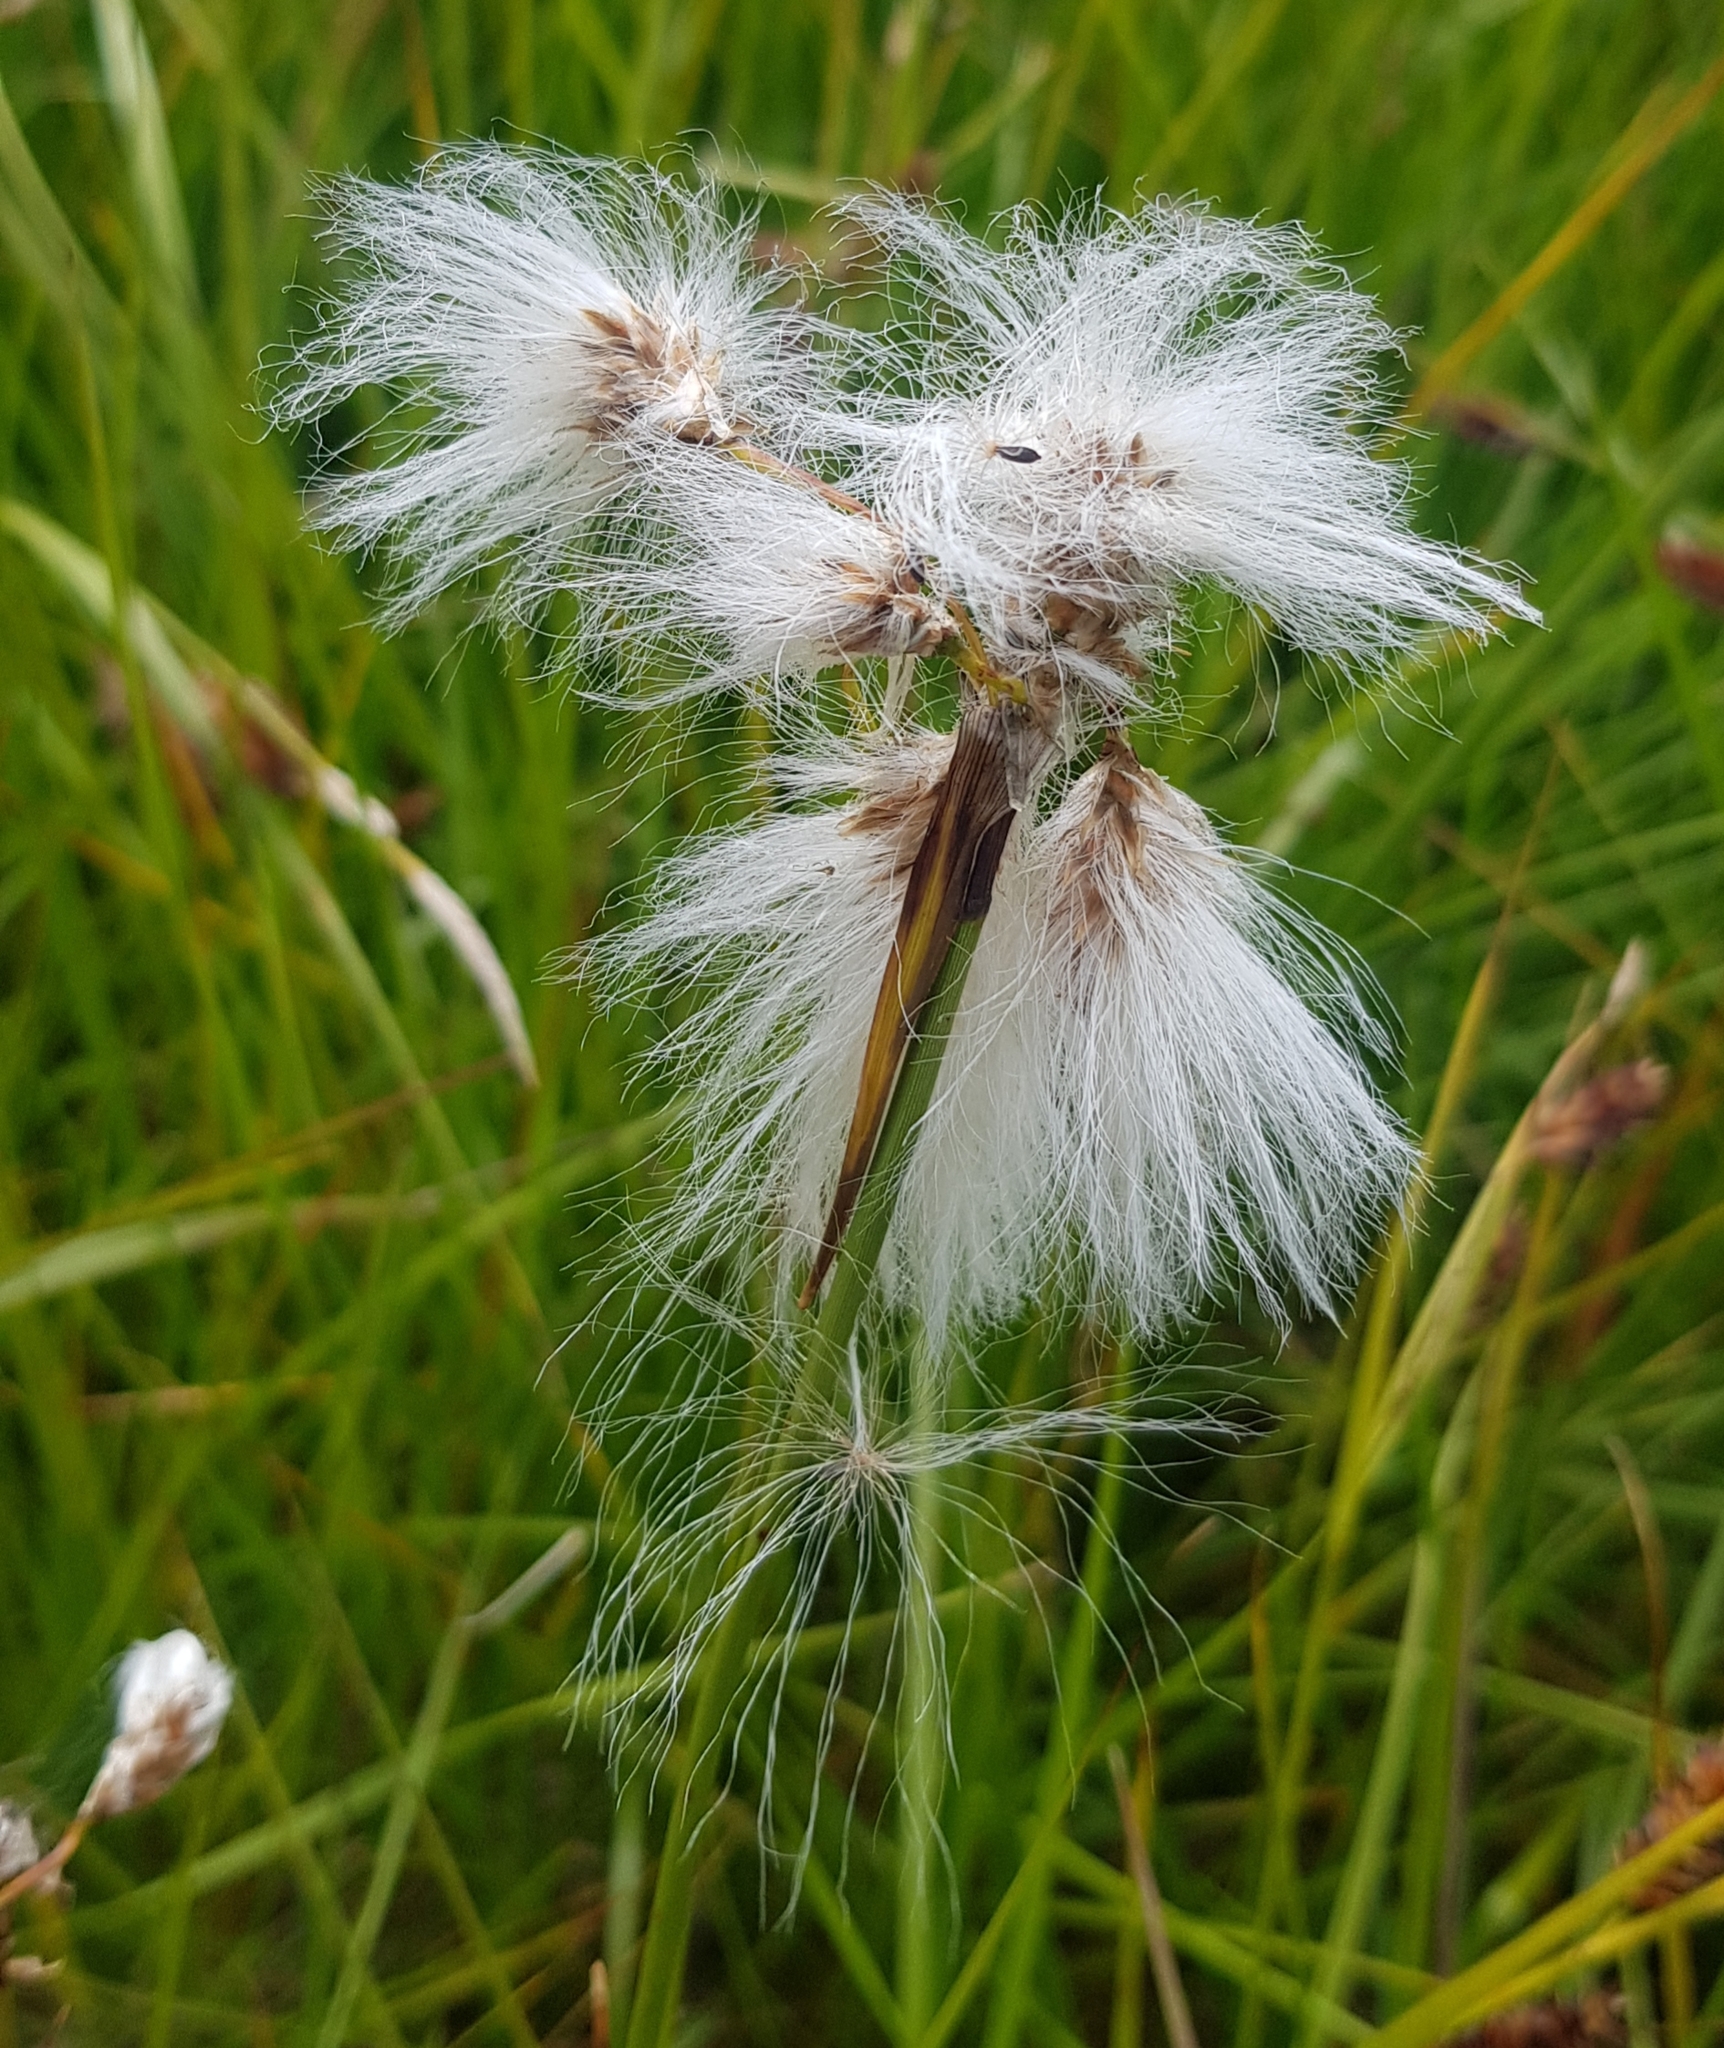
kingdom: Plantae
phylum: Tracheophyta
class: Liliopsida
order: Poales
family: Cyperaceae
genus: Eriophorum
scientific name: Eriophorum angustifolium
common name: Common cottongrass
